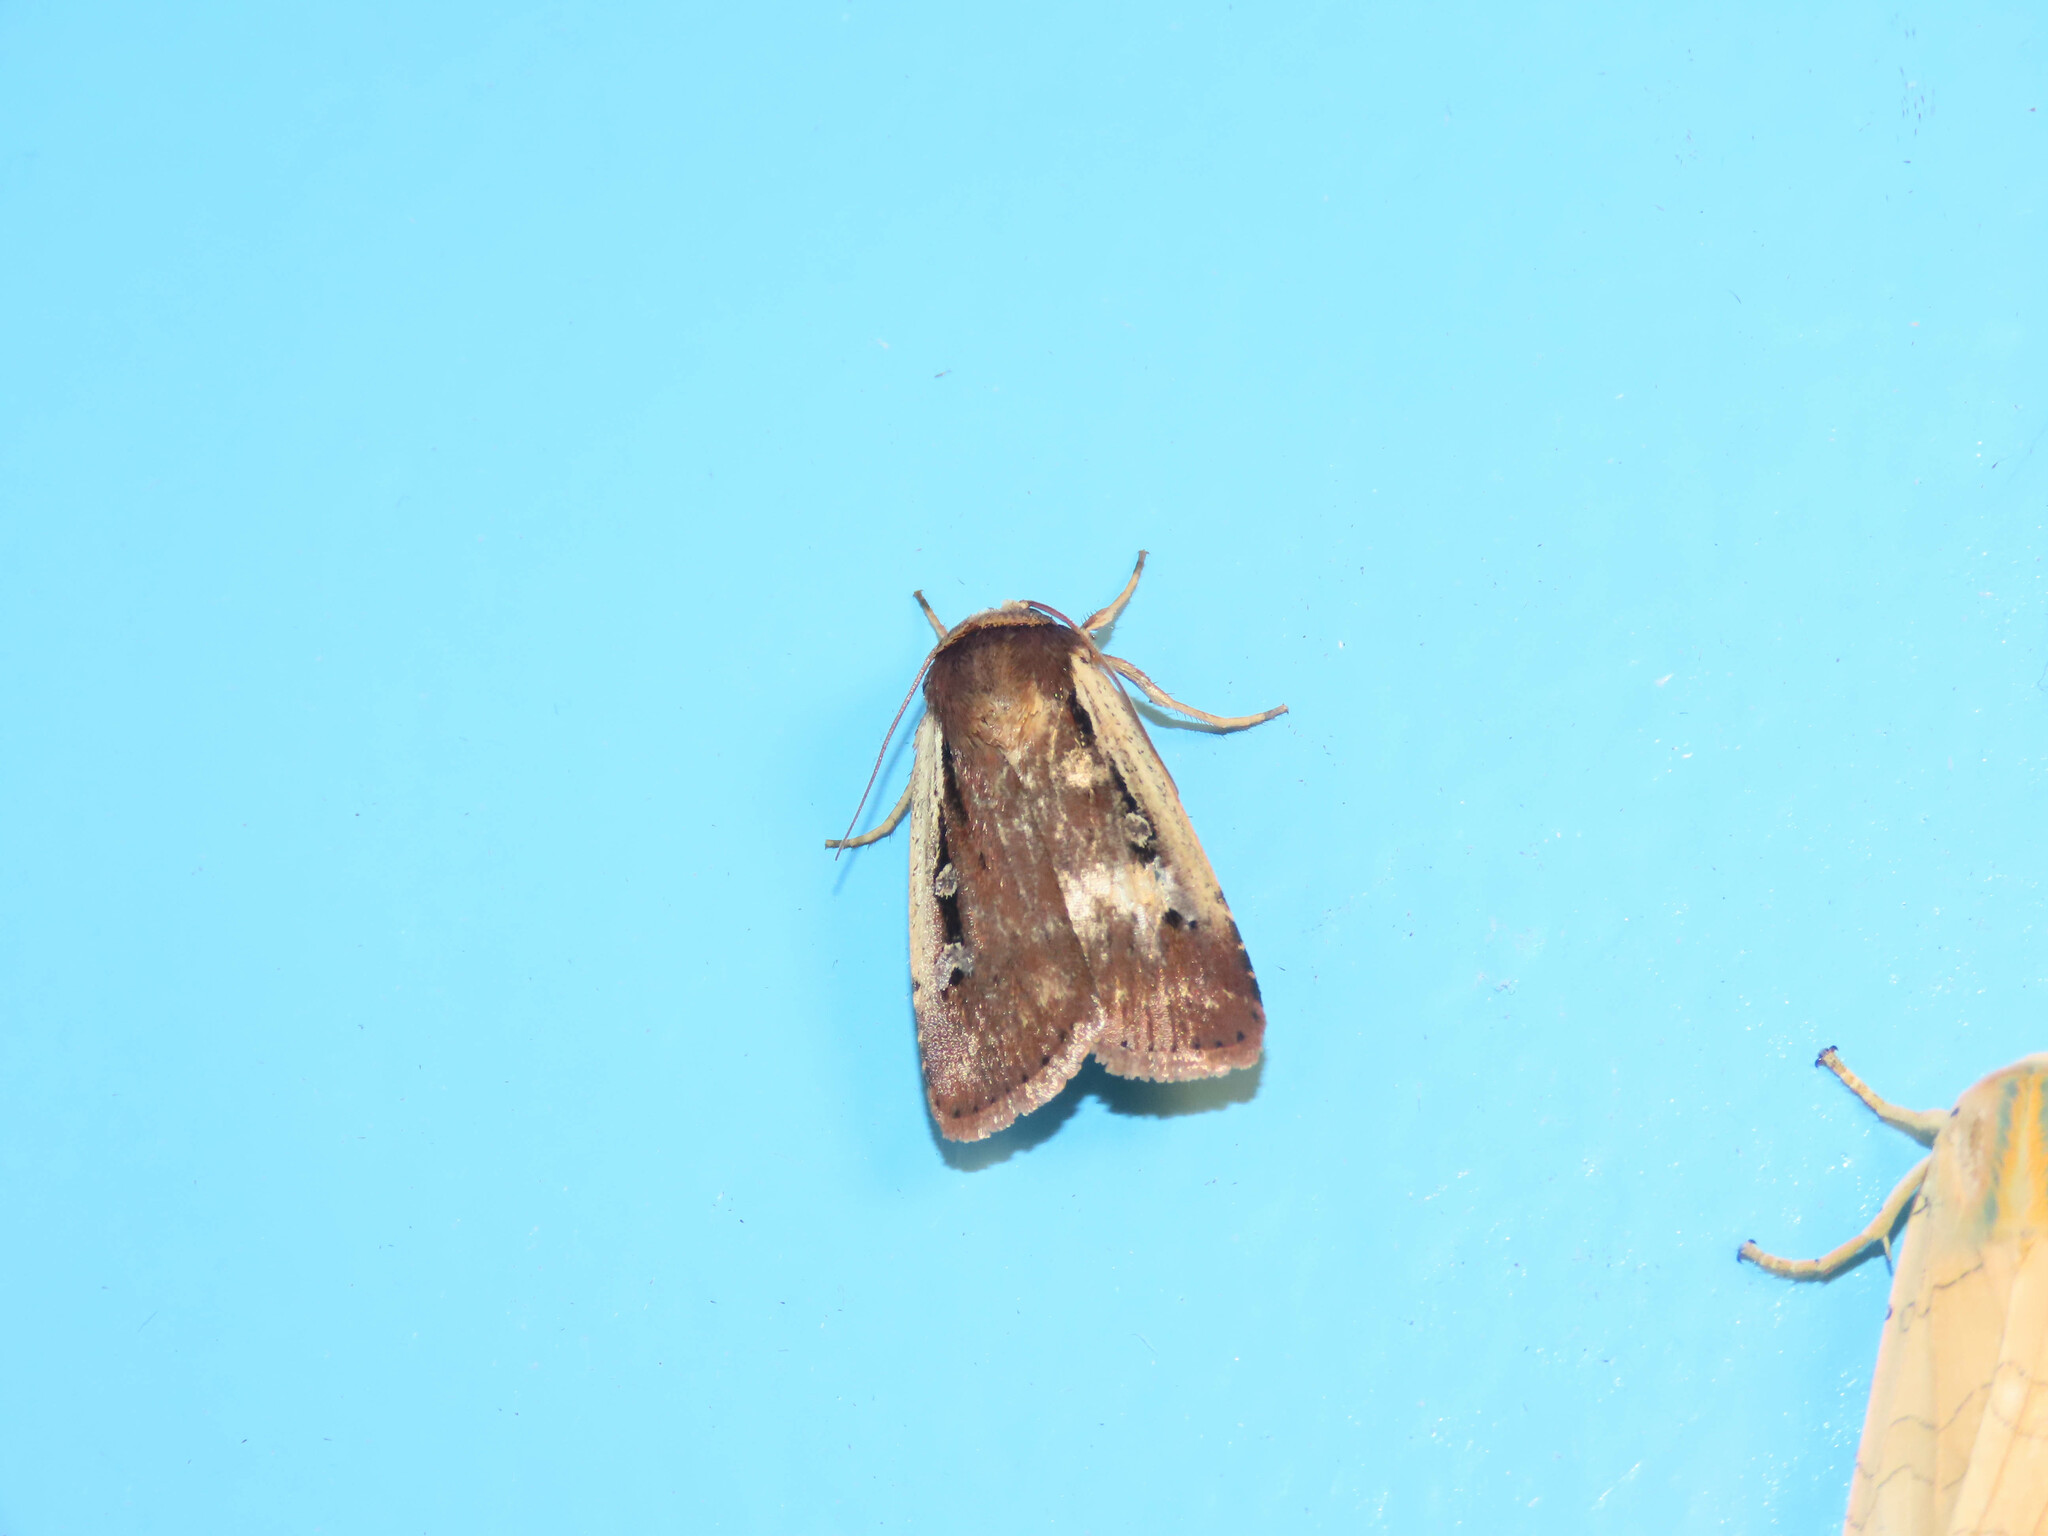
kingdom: Animalia
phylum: Arthropoda
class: Insecta
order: Lepidoptera
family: Noctuidae
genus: Ochropleura
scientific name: Ochropleura implecta
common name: Flame-shouldered dart
